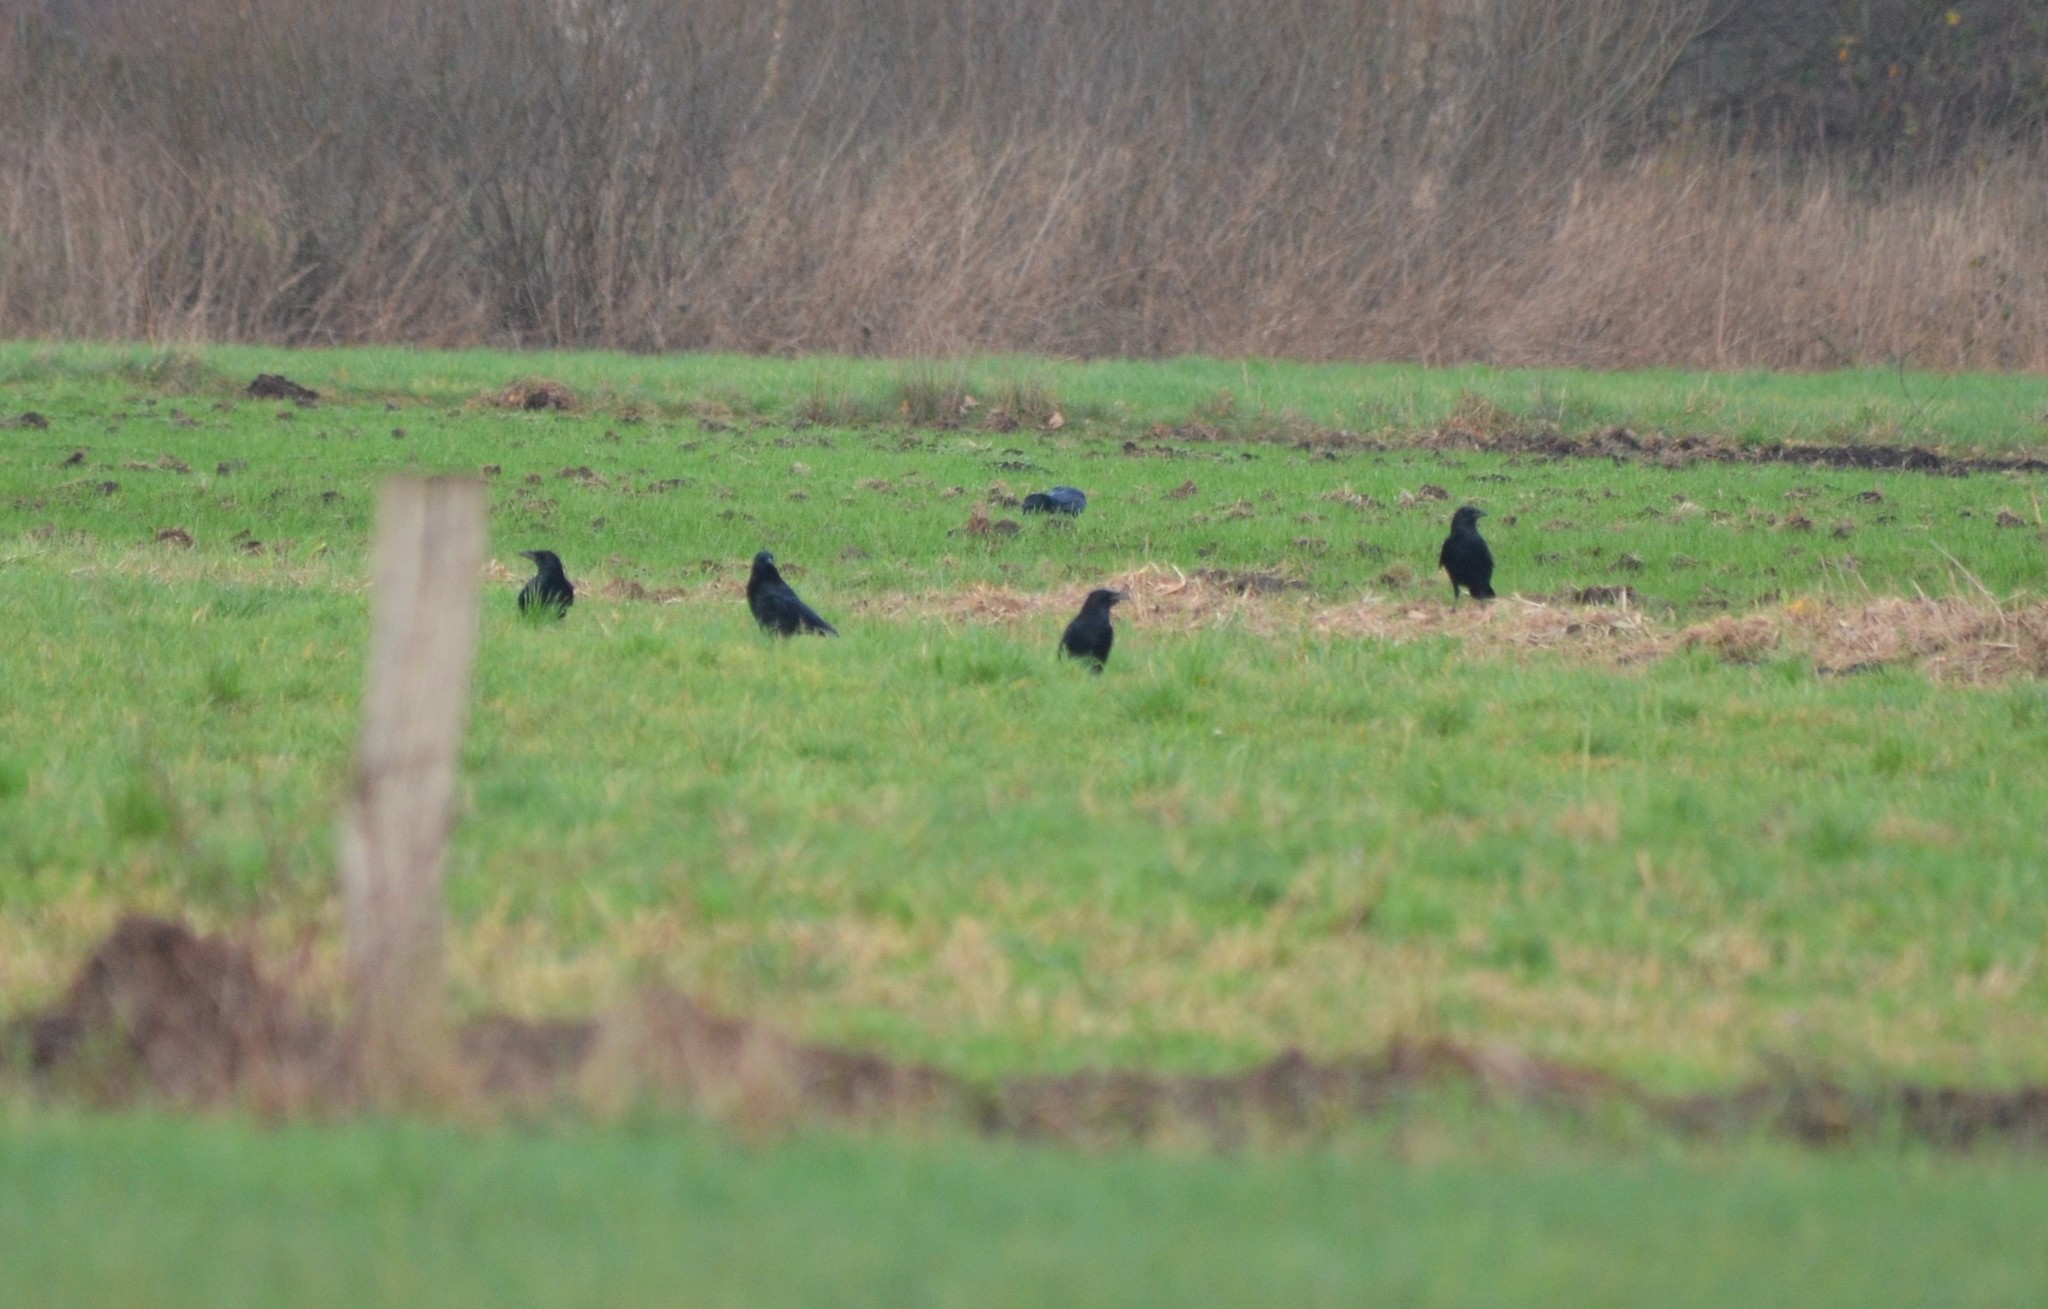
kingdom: Animalia
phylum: Chordata
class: Aves
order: Passeriformes
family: Corvidae
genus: Corvus
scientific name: Corvus corone
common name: Carrion crow
